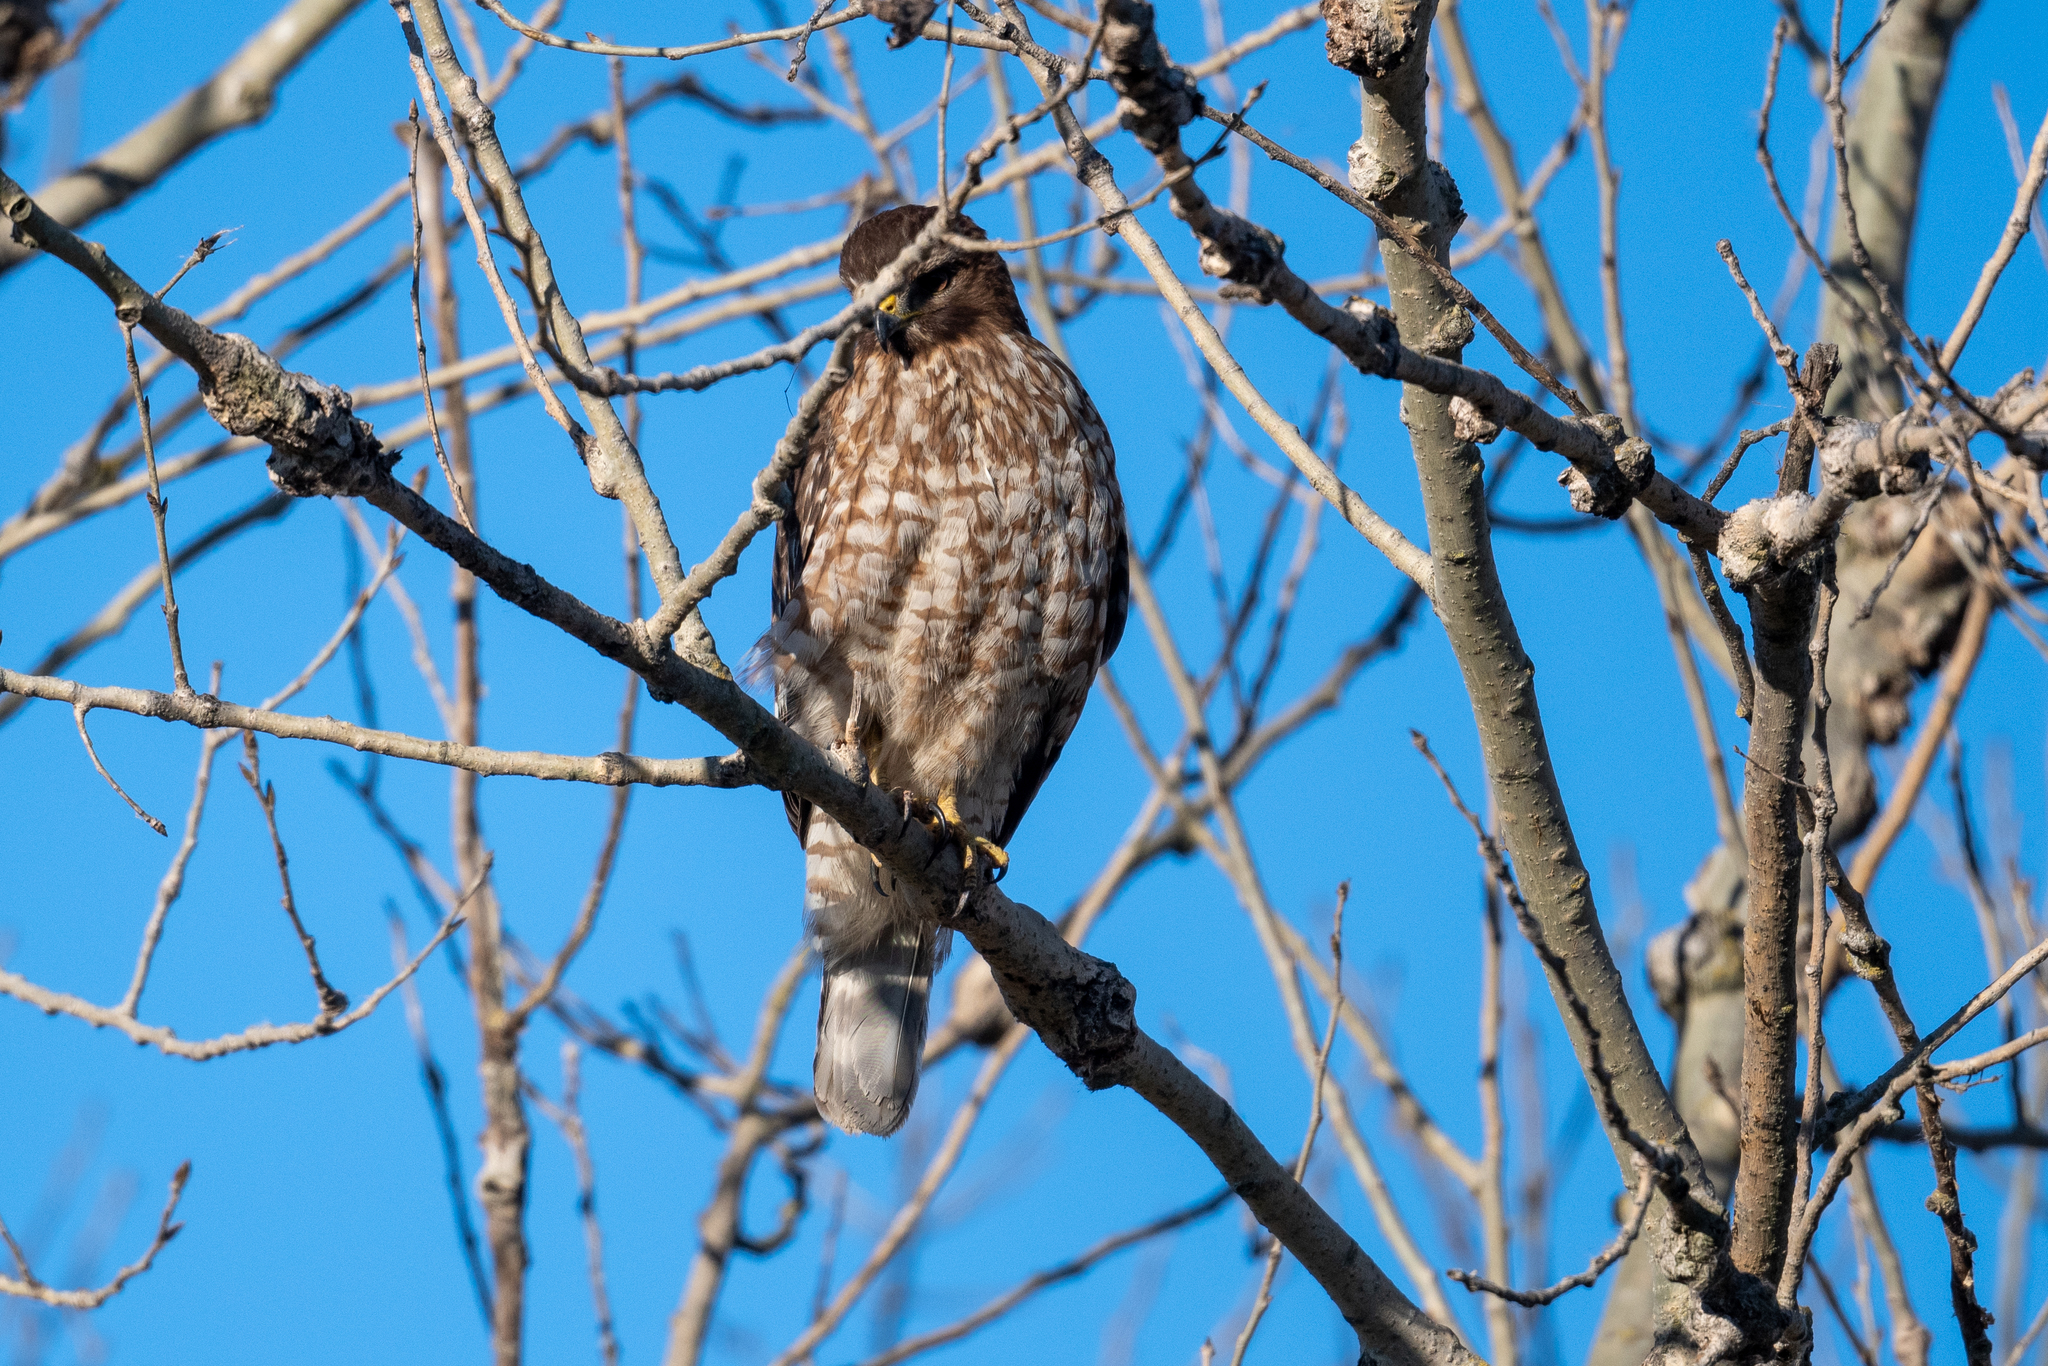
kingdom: Animalia
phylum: Chordata
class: Aves
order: Accipitriformes
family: Accipitridae
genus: Buteo
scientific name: Buteo lineatus
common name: Red-shouldered hawk
